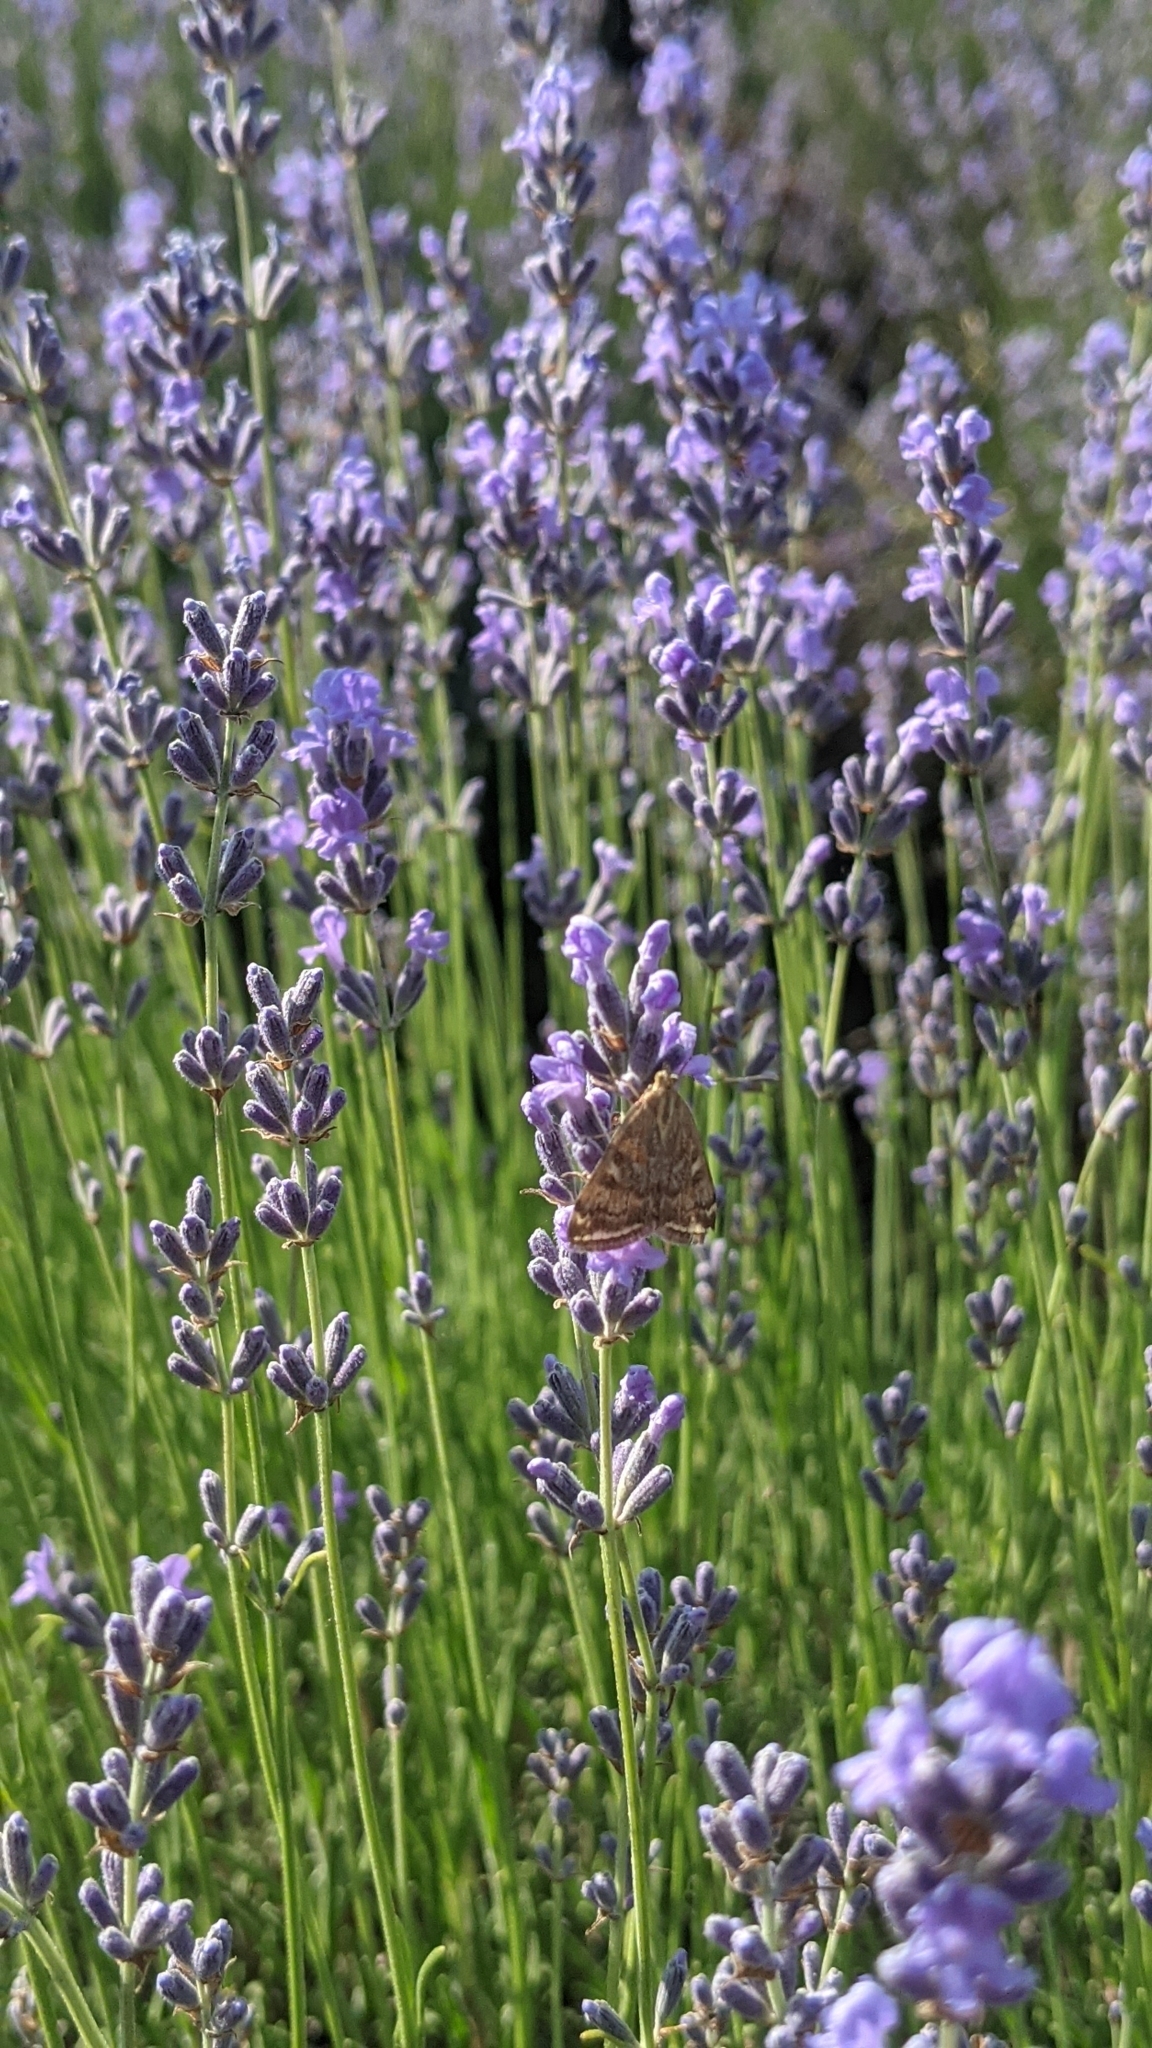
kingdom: Animalia
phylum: Arthropoda
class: Insecta
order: Lepidoptera
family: Crambidae
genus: Loxostege
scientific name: Loxostege sticticalis
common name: Crambid moth
